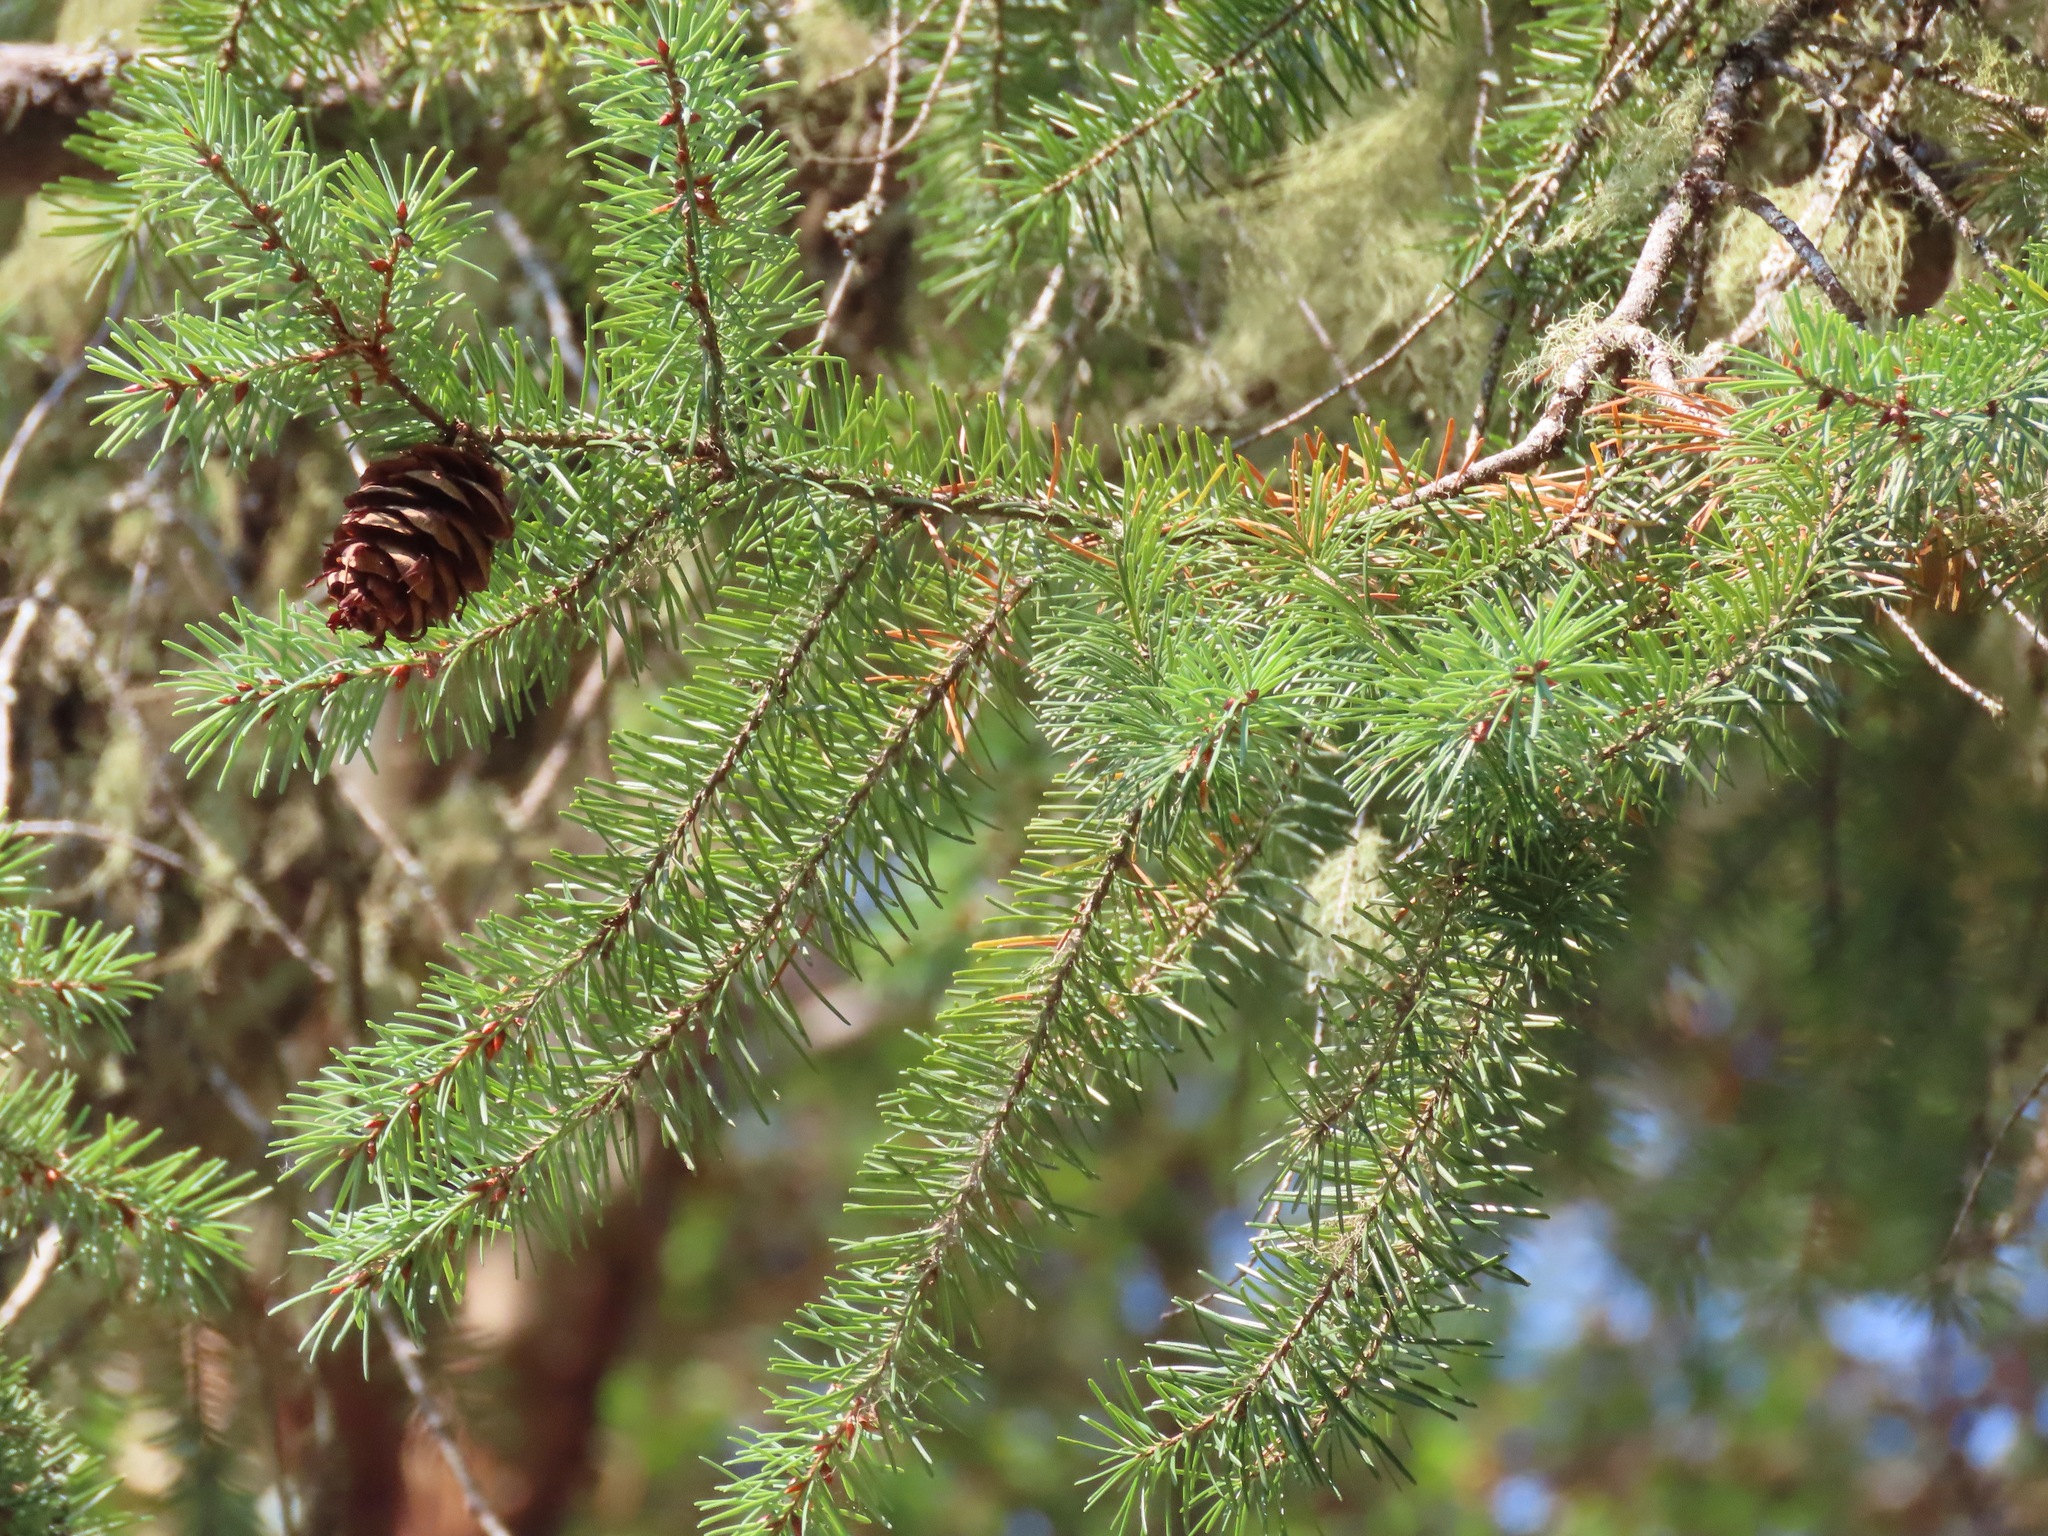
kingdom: Plantae
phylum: Tracheophyta
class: Pinopsida
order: Pinales
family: Pinaceae
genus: Pseudotsuga
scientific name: Pseudotsuga menziesii
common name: Douglas fir
